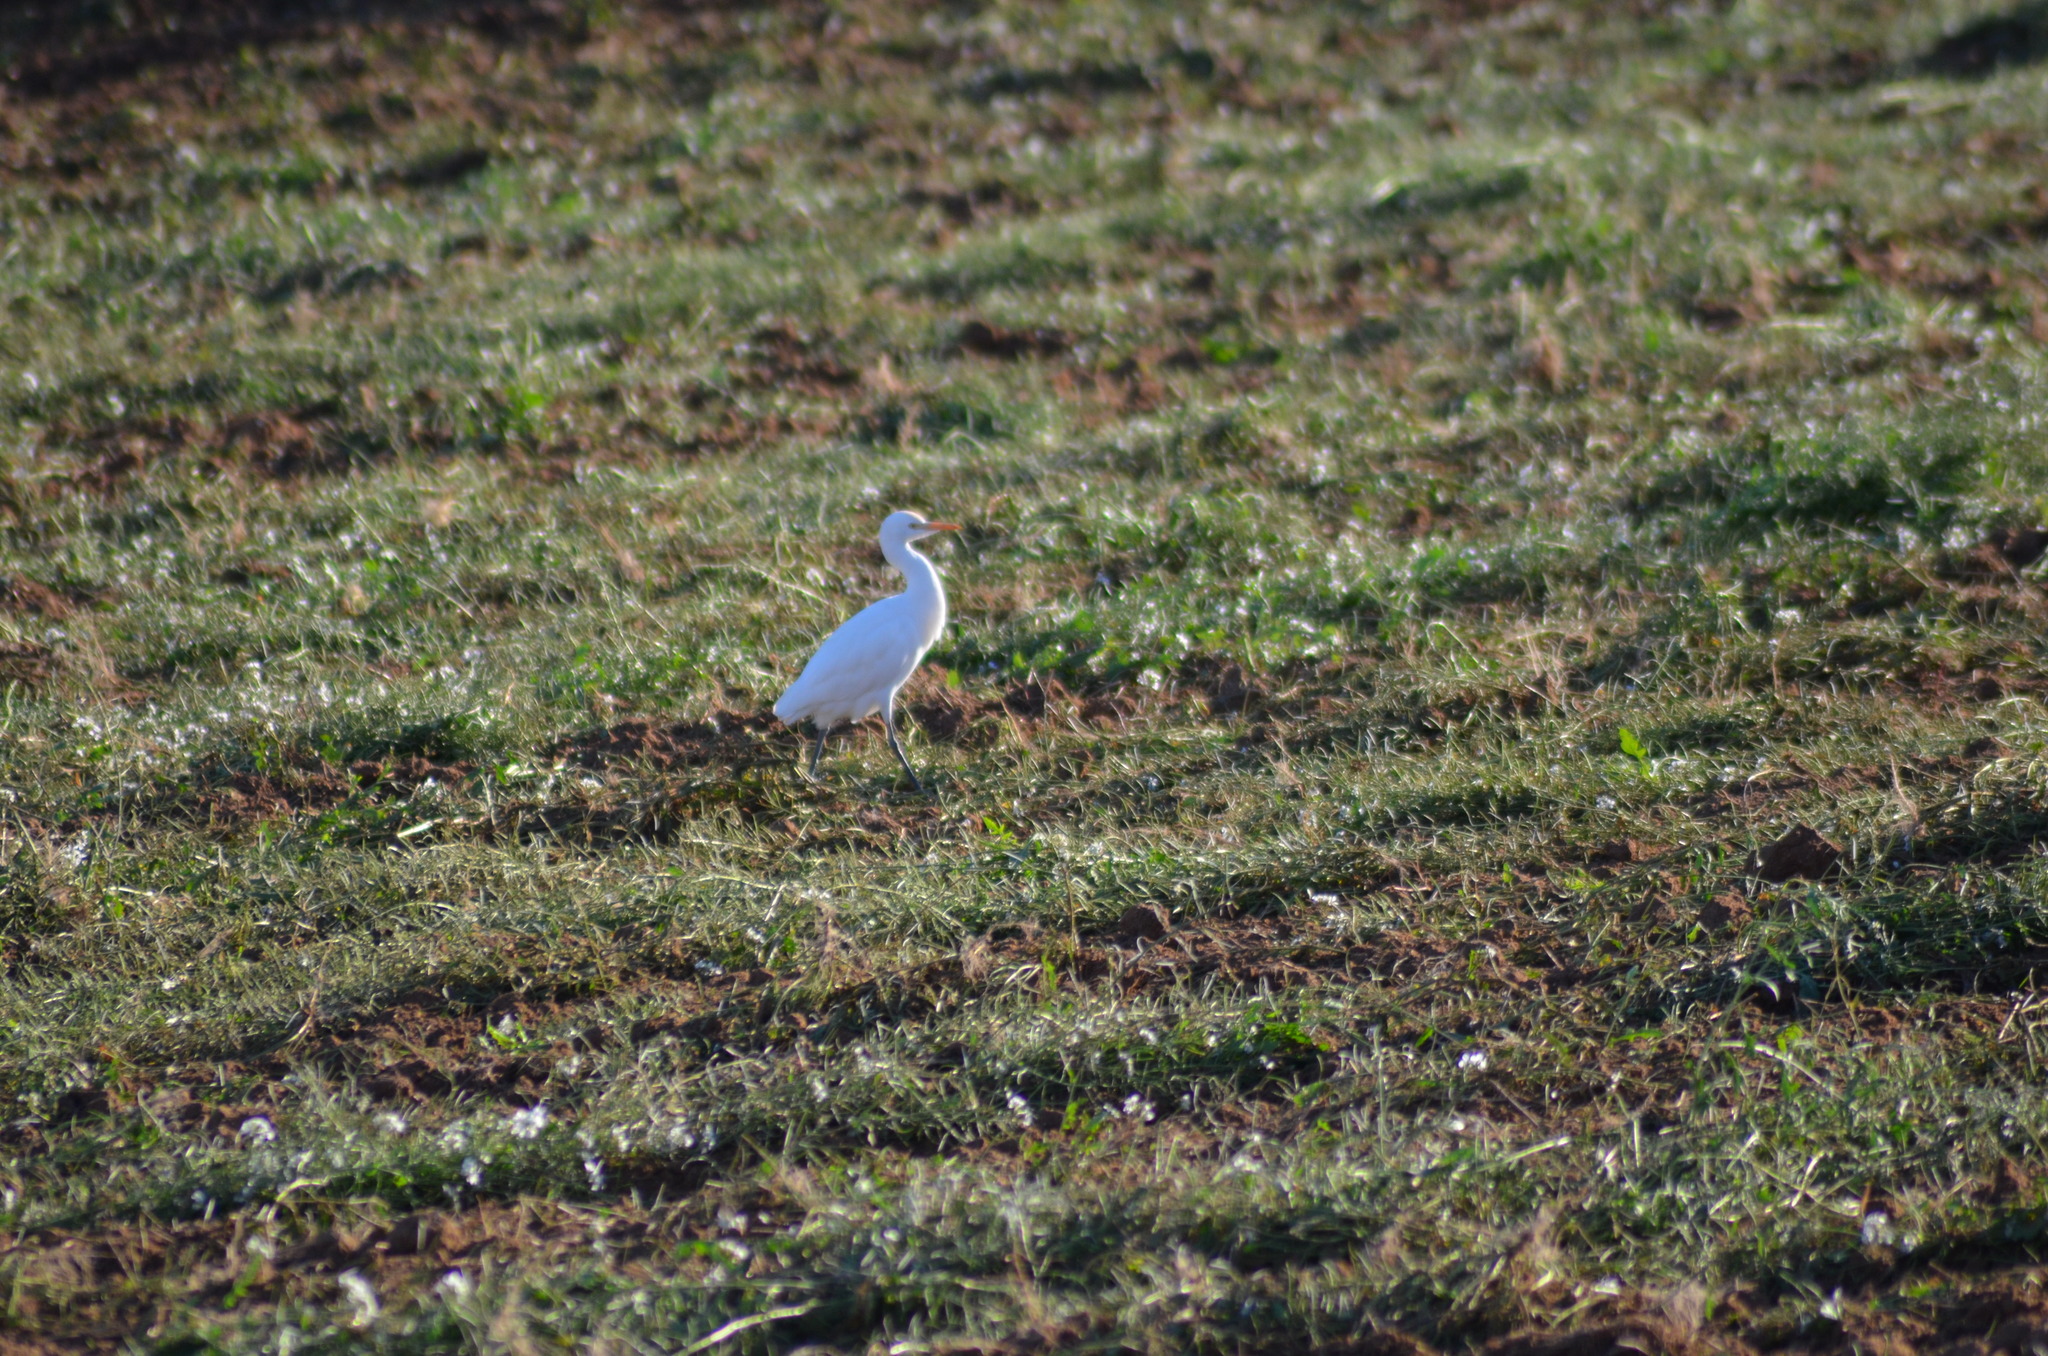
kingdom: Animalia
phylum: Chordata
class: Aves
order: Pelecaniformes
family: Ardeidae
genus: Bubulcus
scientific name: Bubulcus ibis
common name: Cattle egret
